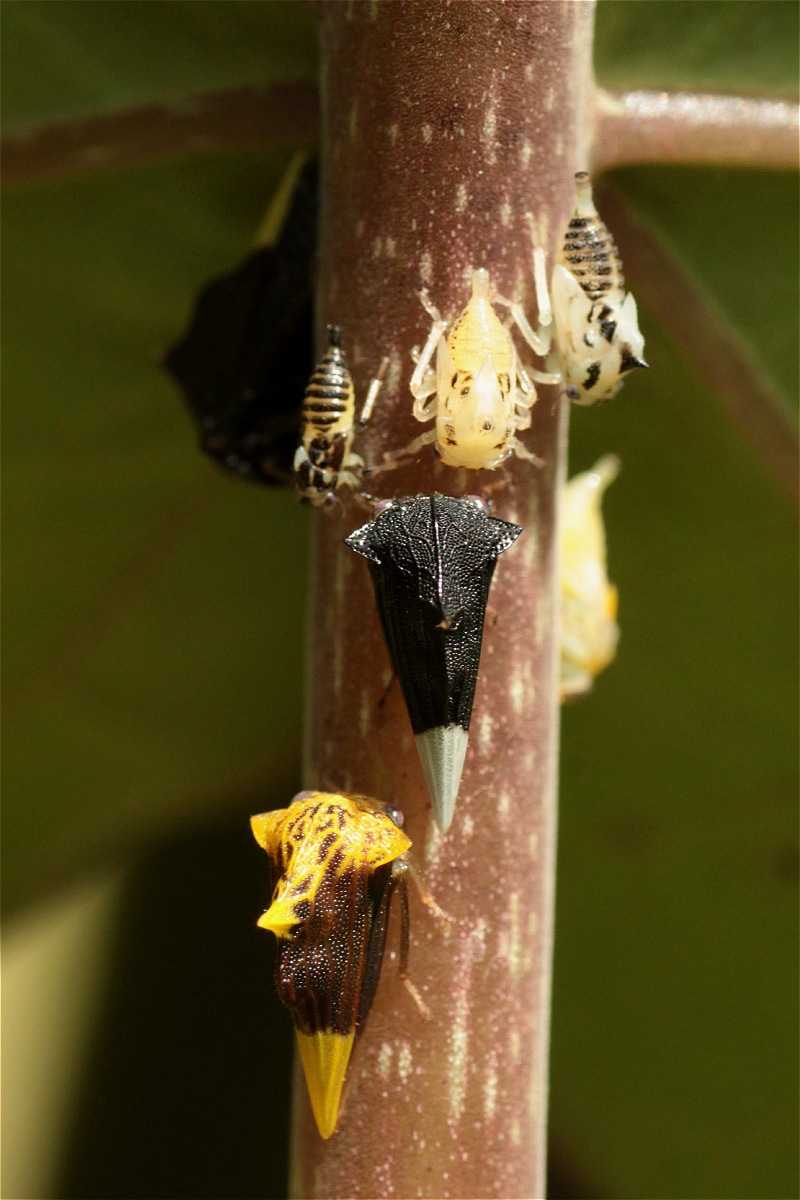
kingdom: Animalia
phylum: Arthropoda
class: Insecta
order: Hemiptera
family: Membracidae
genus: Ennya
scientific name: Ennya chrysura
